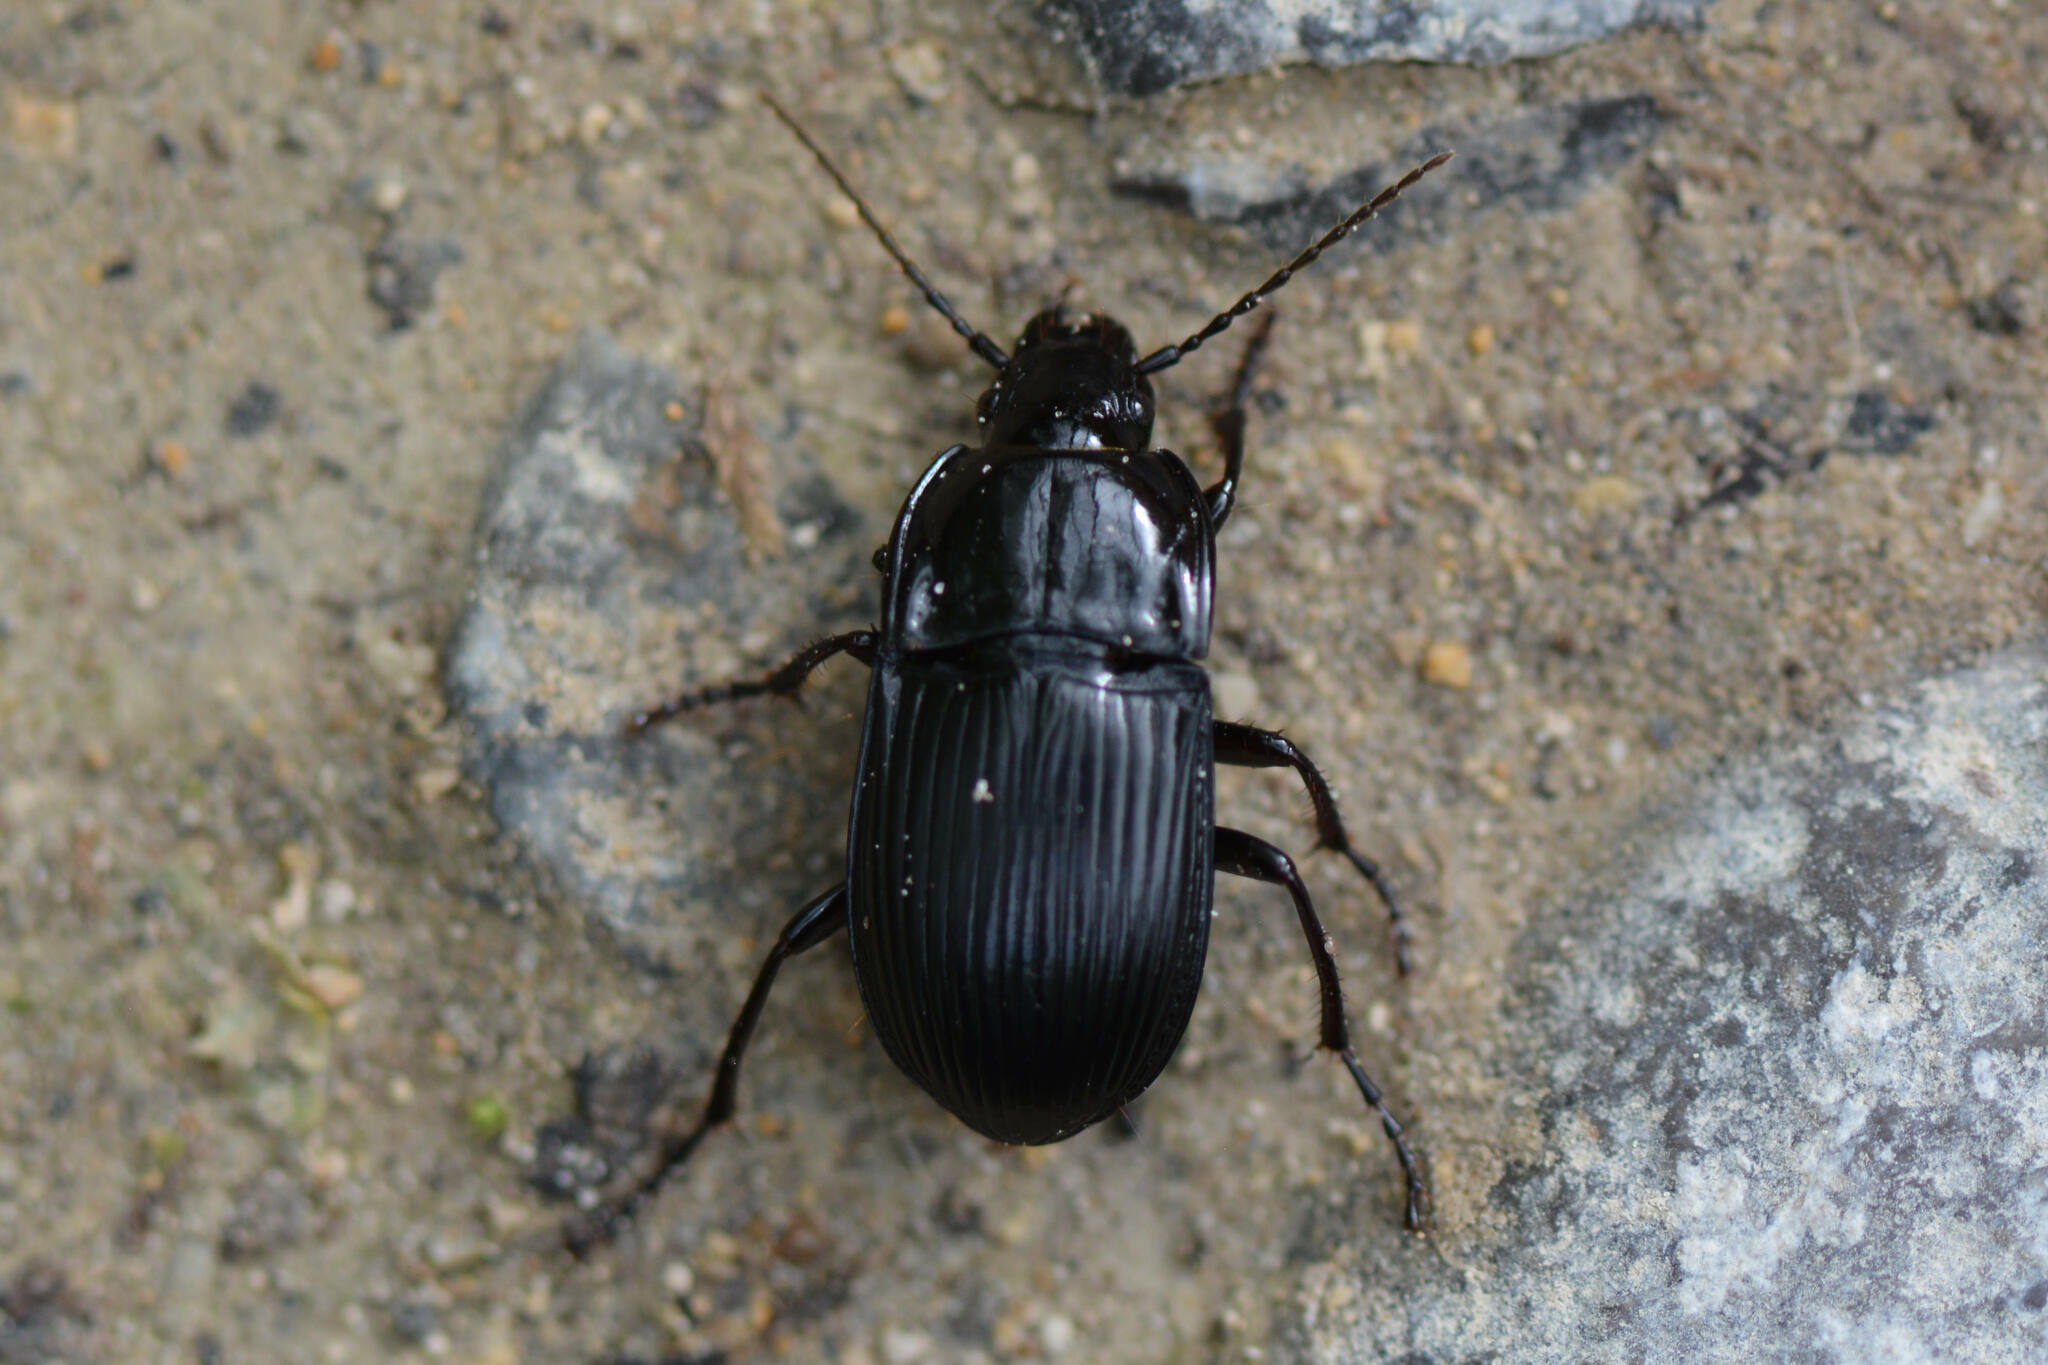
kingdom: Animalia
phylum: Arthropoda
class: Insecta
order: Coleoptera
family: Carabidae
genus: Abax
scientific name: Abax ovalis
